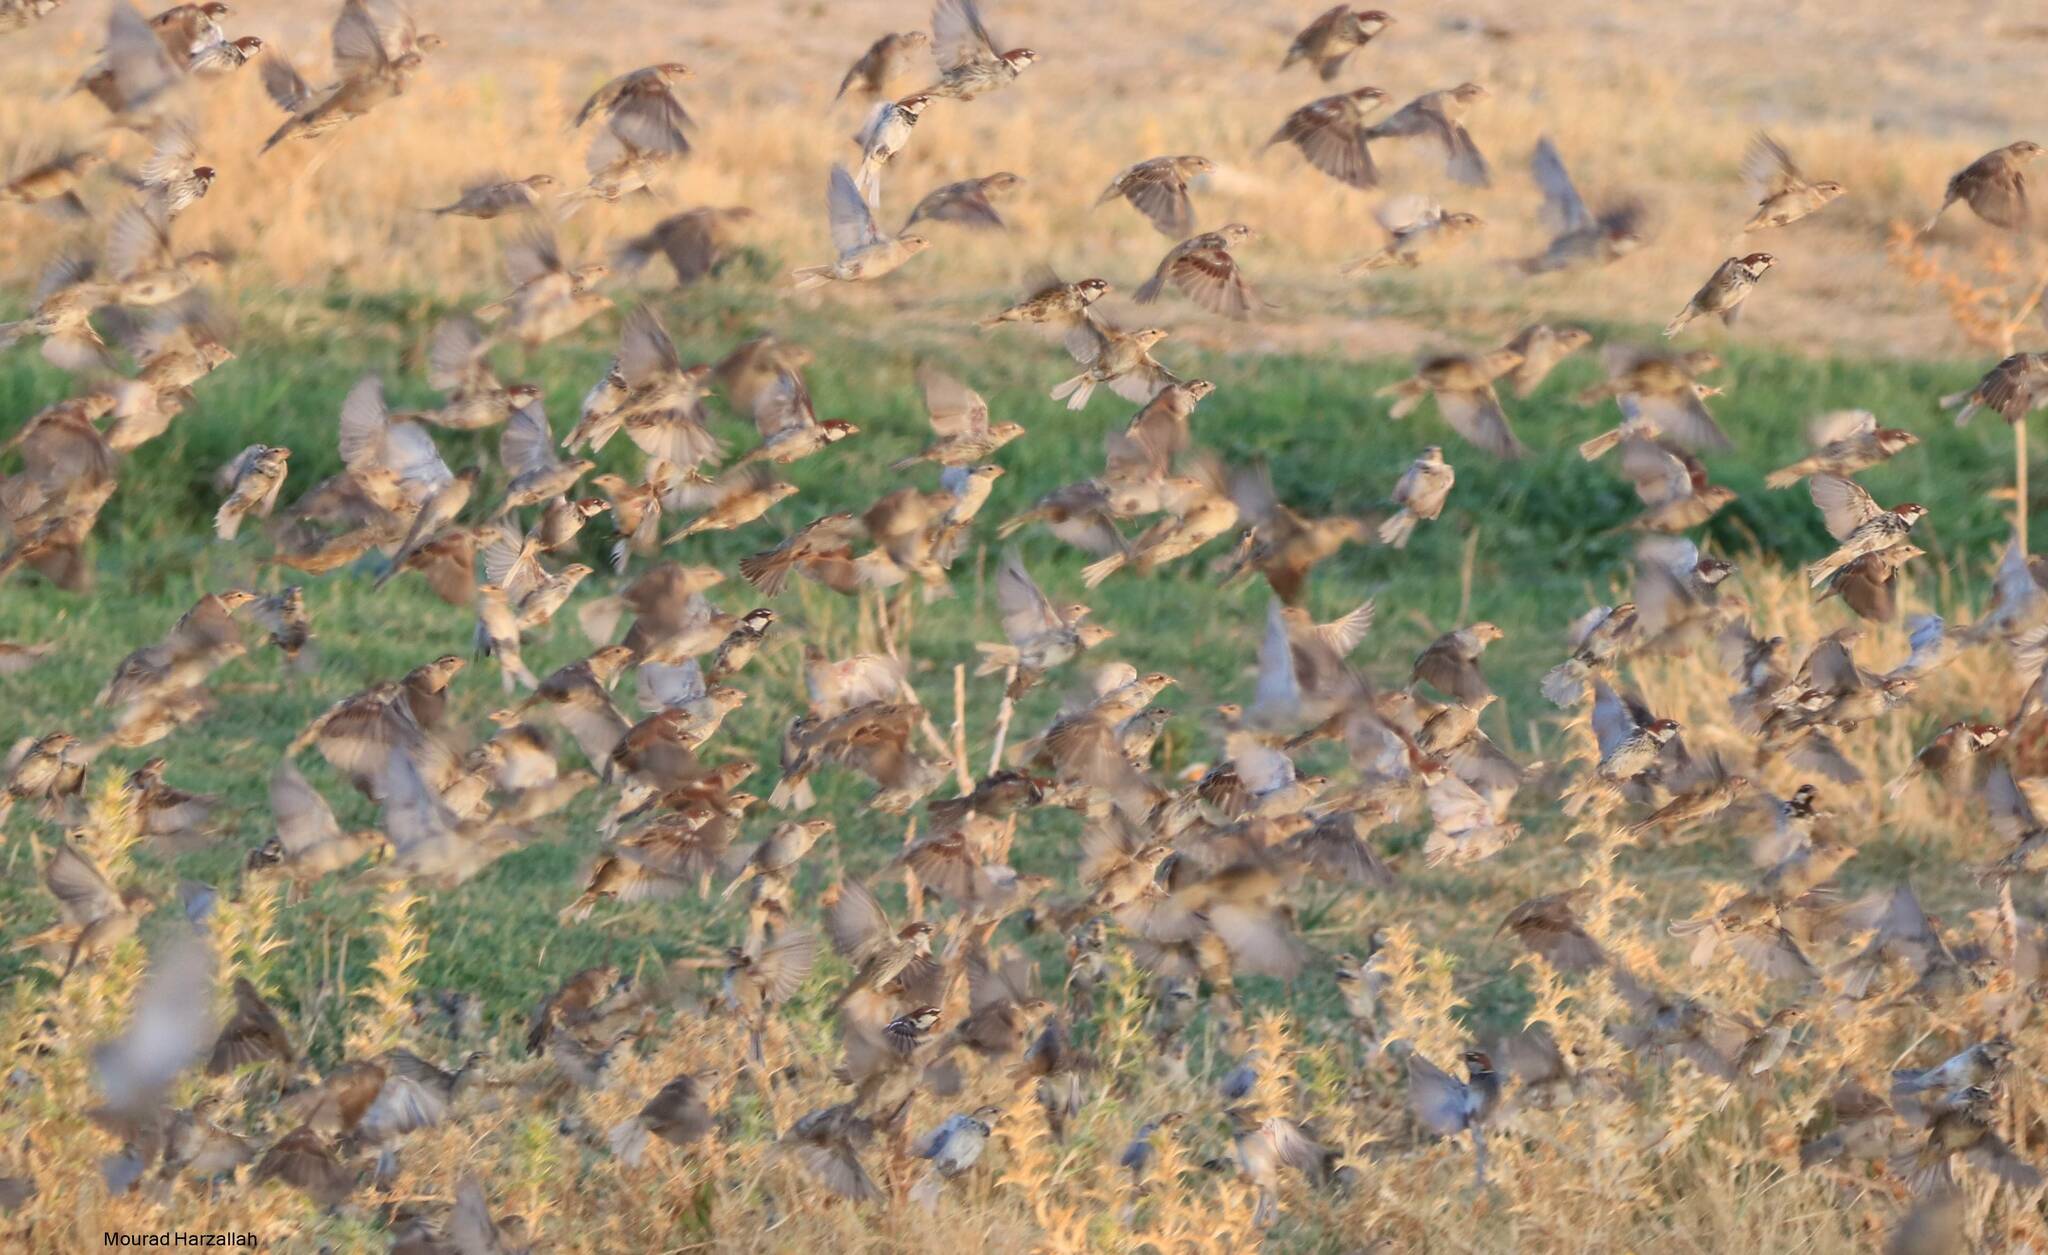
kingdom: Animalia
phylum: Chordata
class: Aves
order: Passeriformes
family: Passeridae
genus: Passer
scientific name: Passer hispaniolensis
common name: Spanish sparrow
